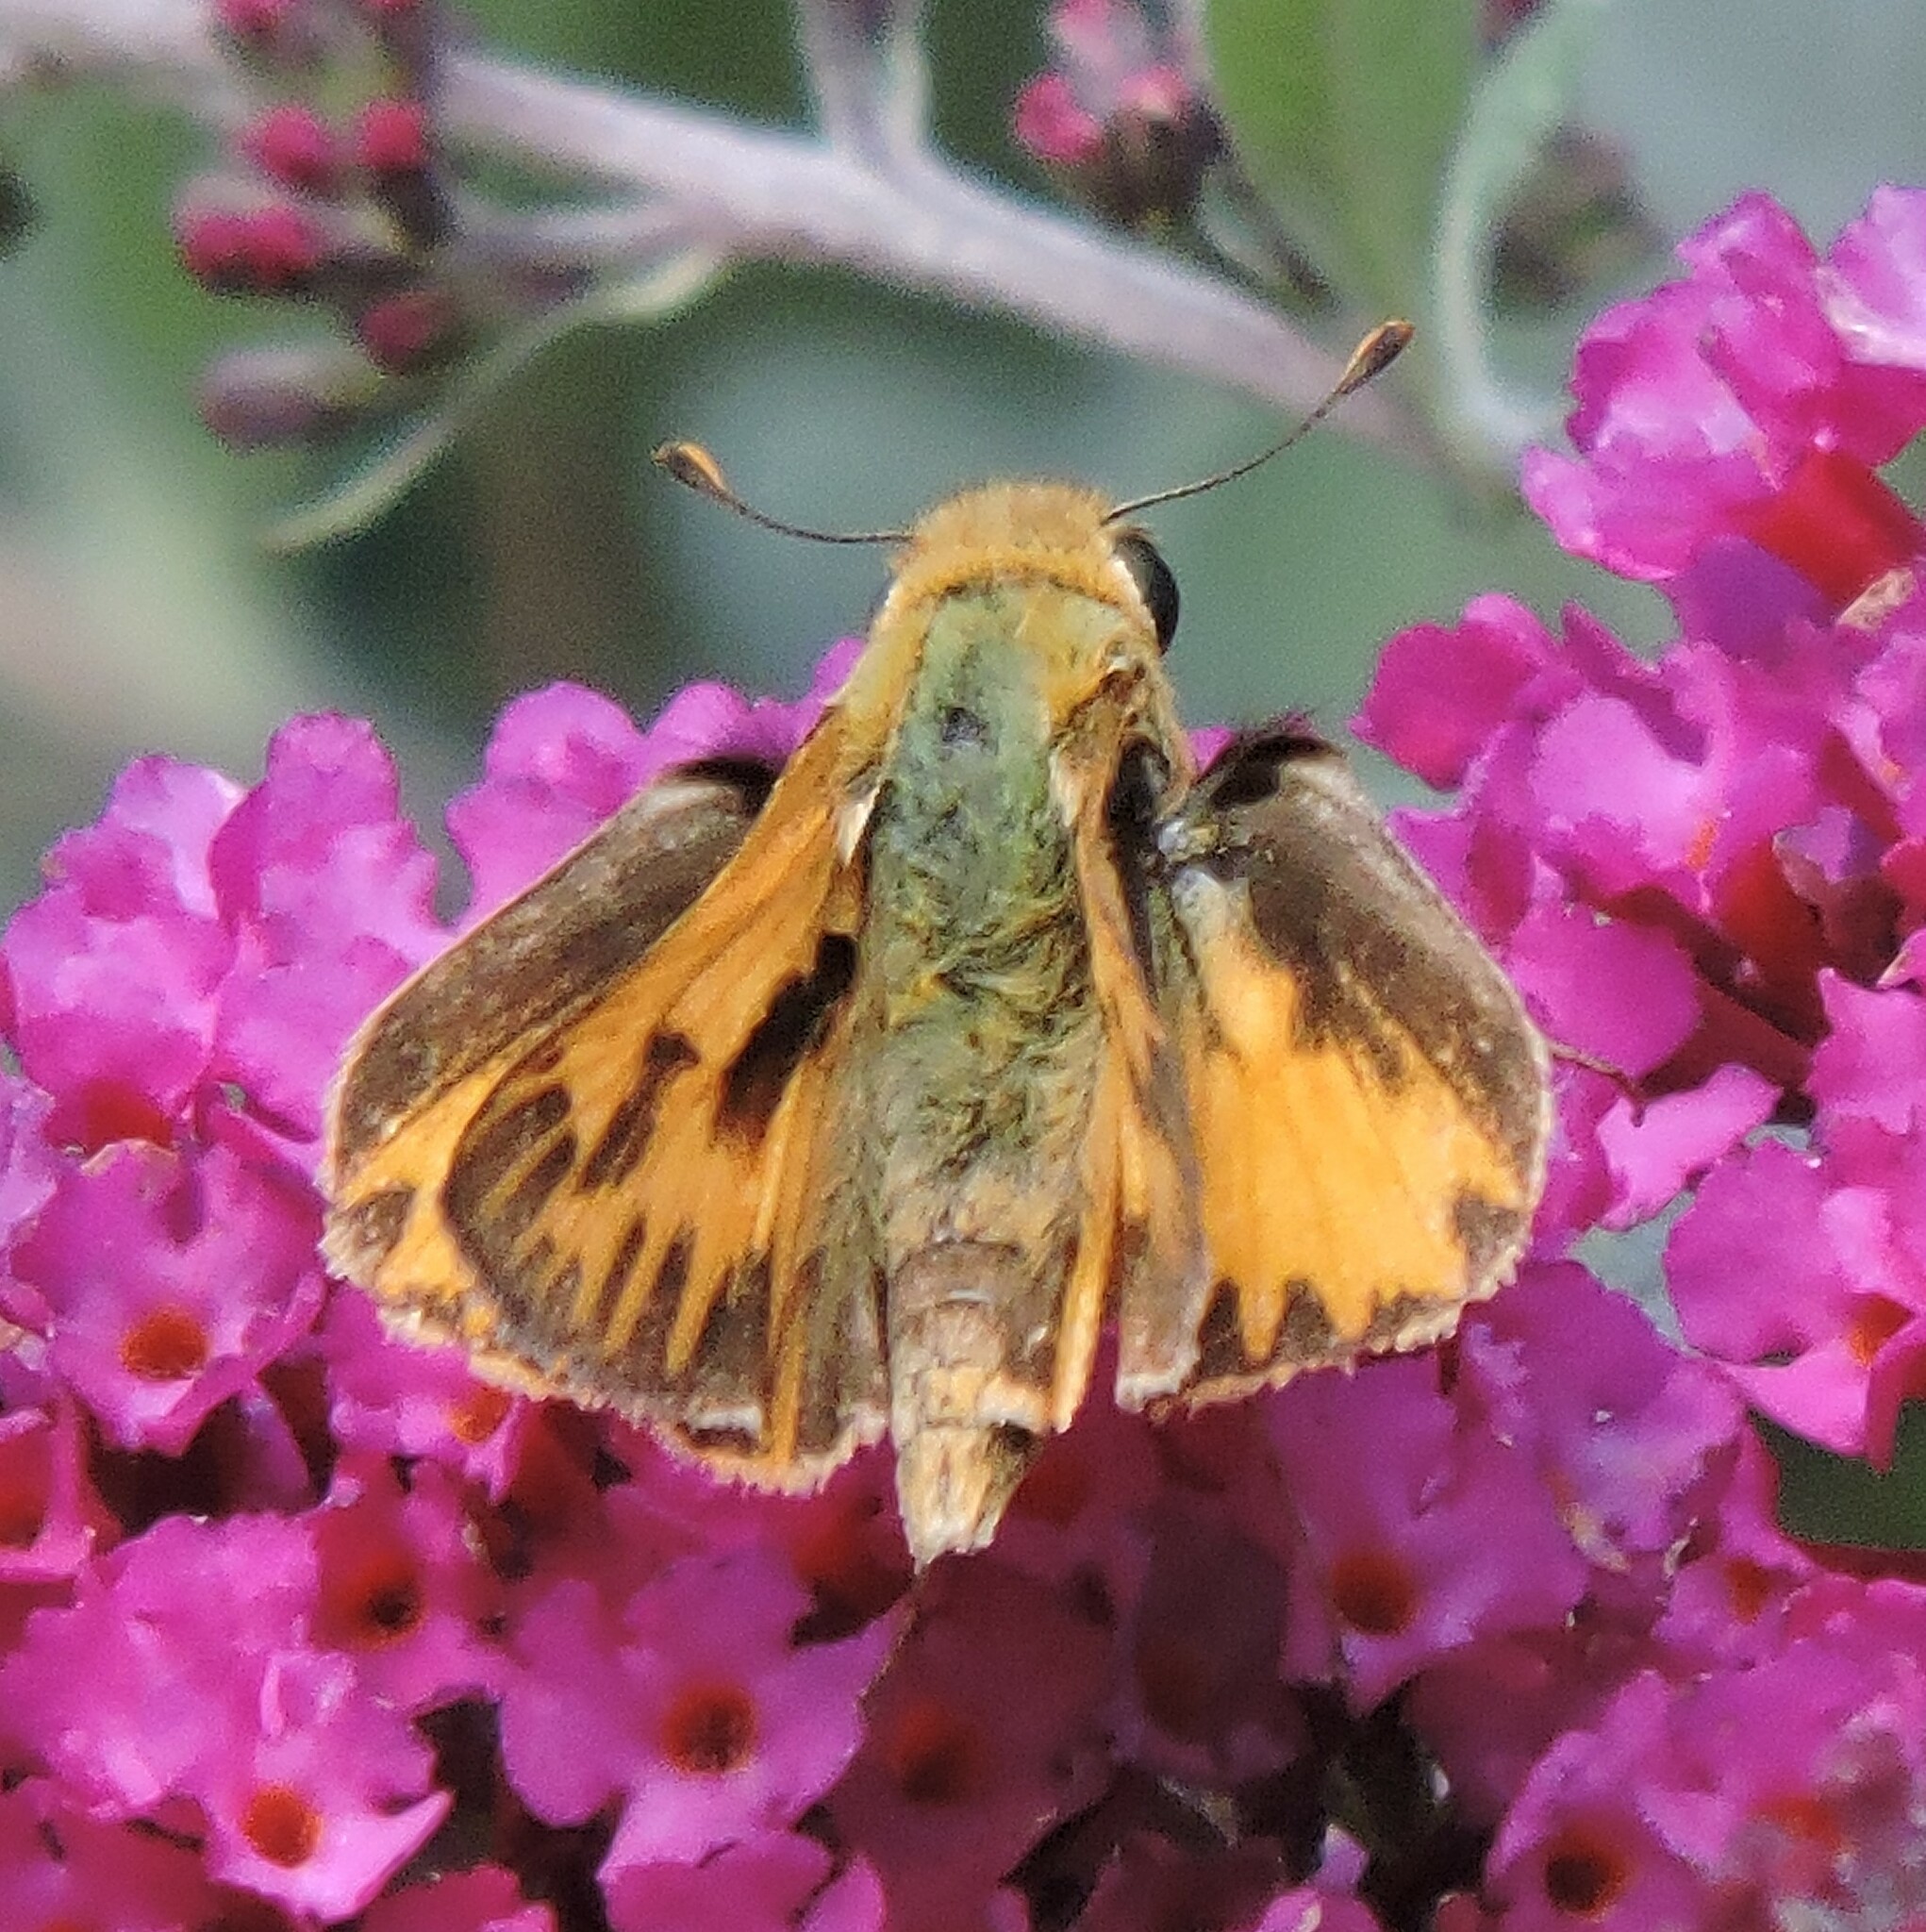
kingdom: Animalia
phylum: Arthropoda
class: Insecta
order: Lepidoptera
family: Hesperiidae
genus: Hylephila
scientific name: Hylephila phyleus
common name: Fiery skipper
